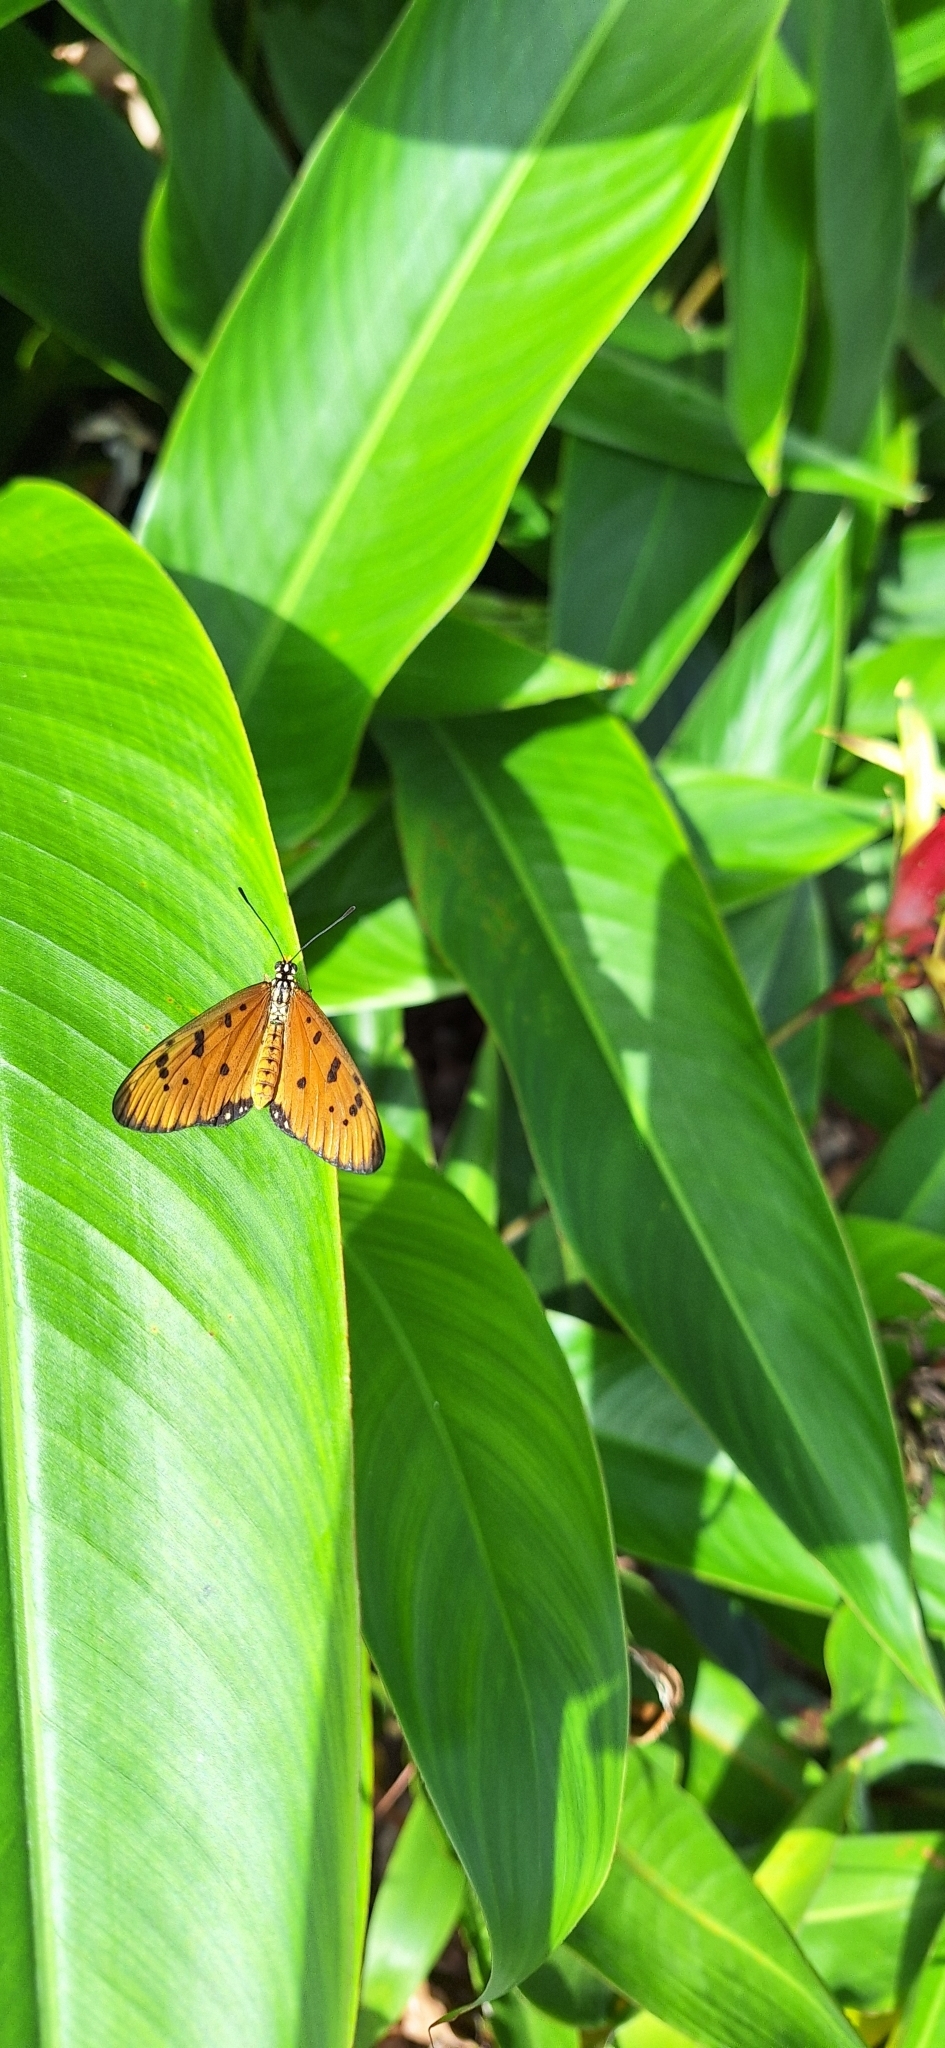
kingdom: Animalia
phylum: Arthropoda
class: Insecta
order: Lepidoptera
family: Nymphalidae
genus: Acraea
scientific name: Acraea terpsicore
